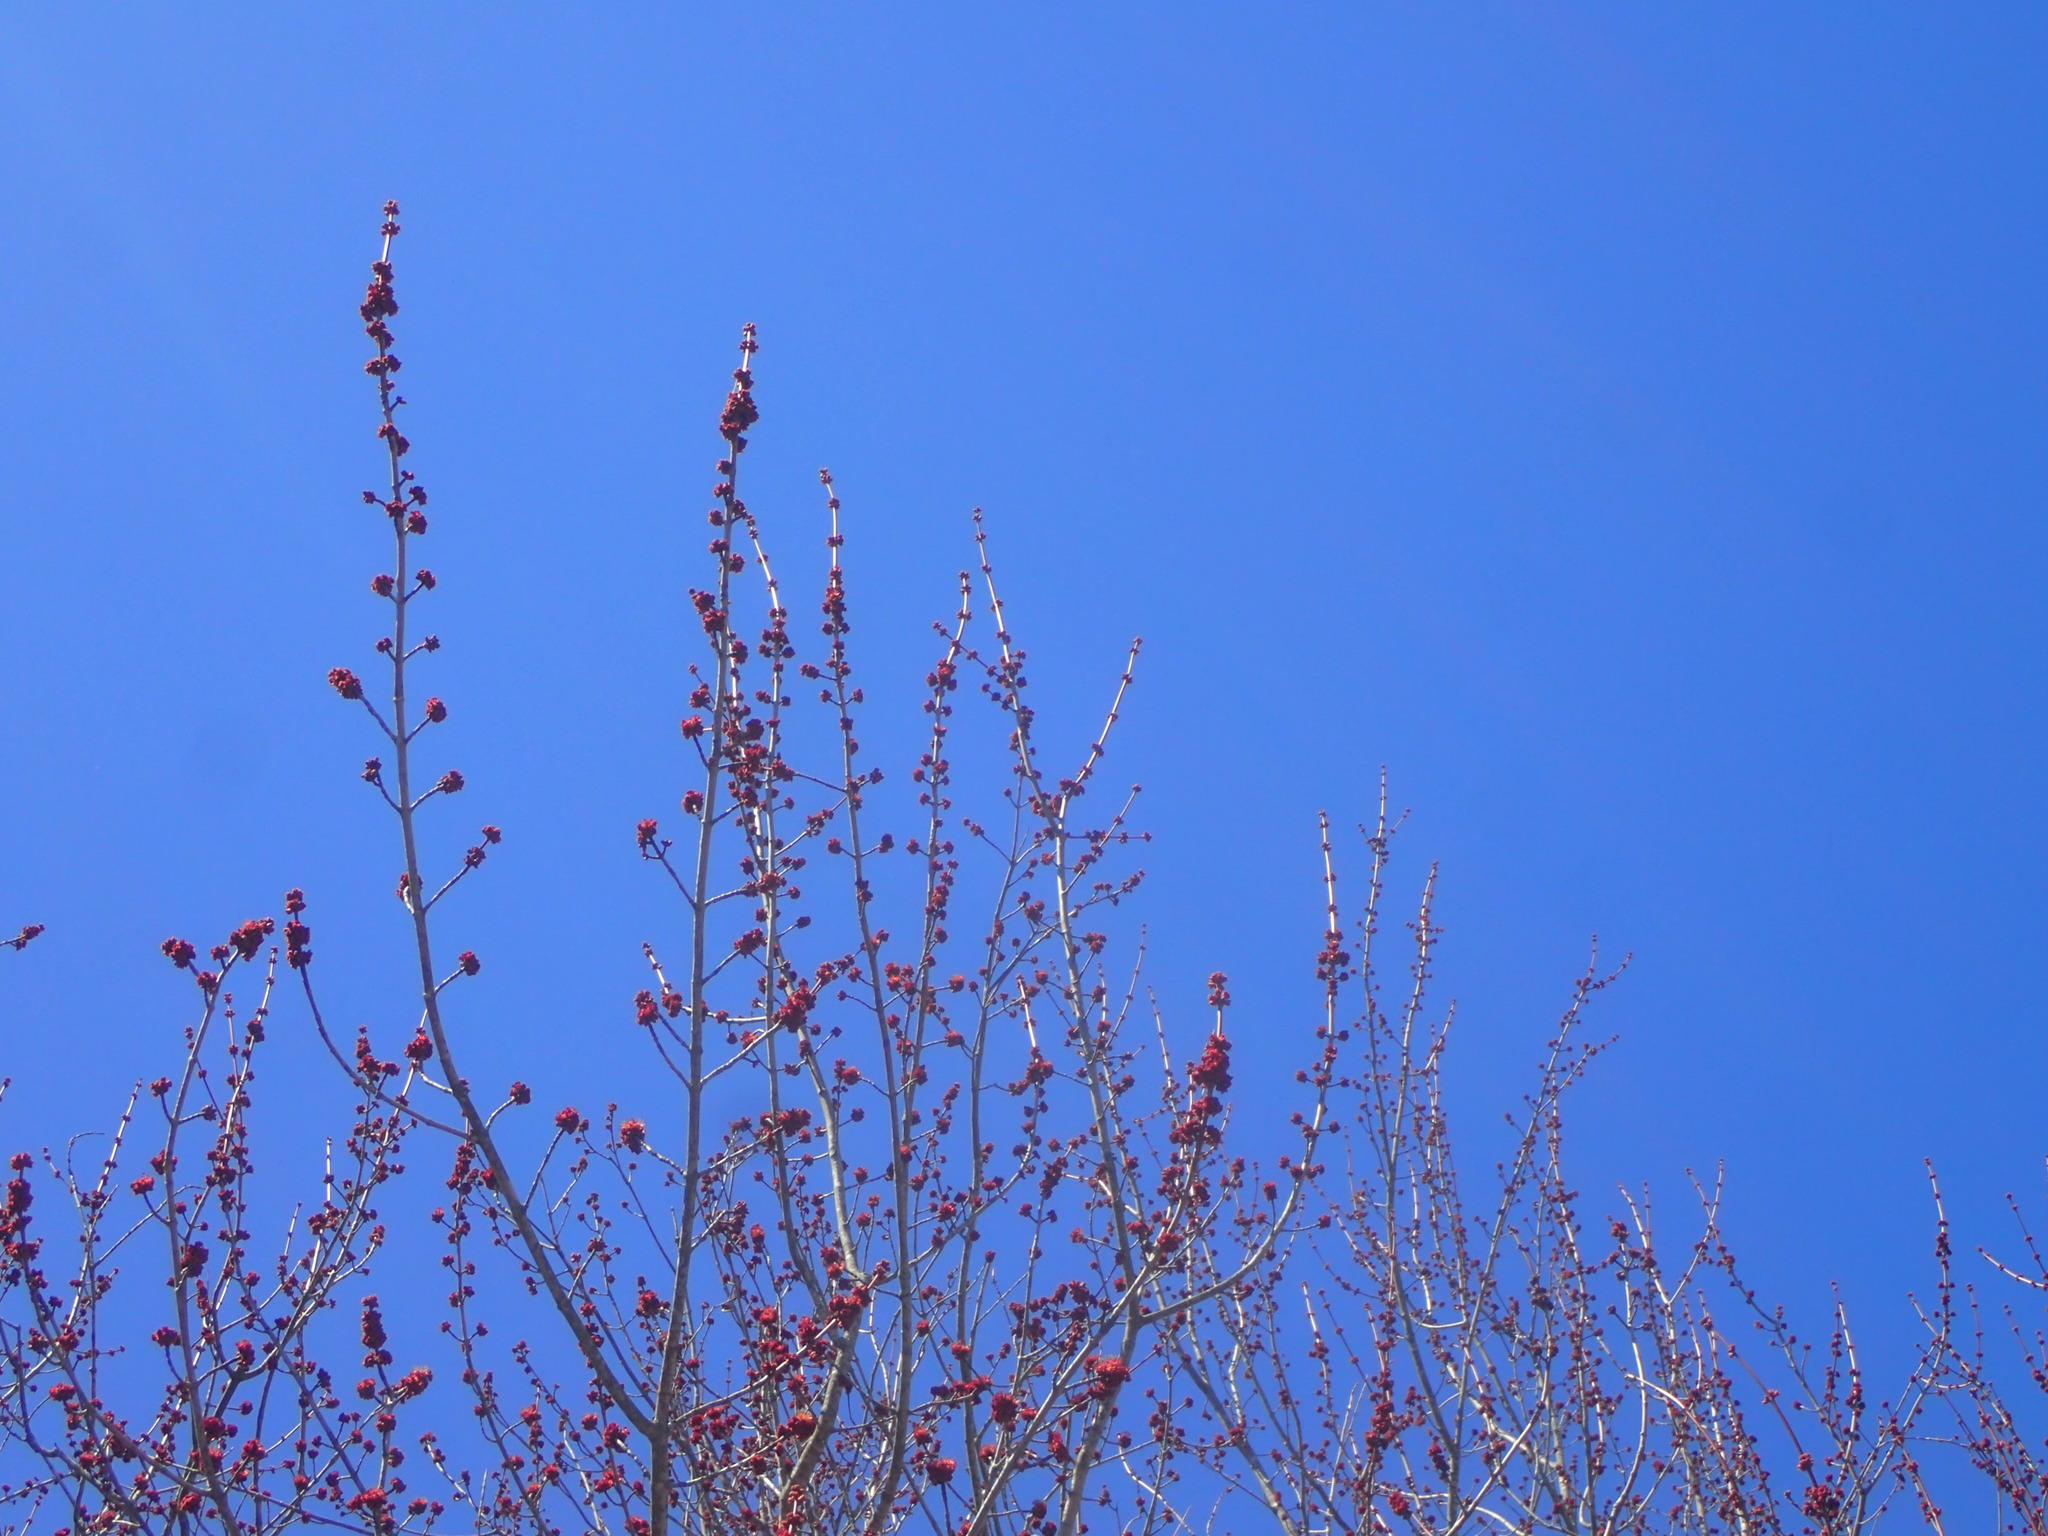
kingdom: Plantae
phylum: Tracheophyta
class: Magnoliopsida
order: Sapindales
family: Sapindaceae
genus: Acer
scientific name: Acer rubrum
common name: Red maple
